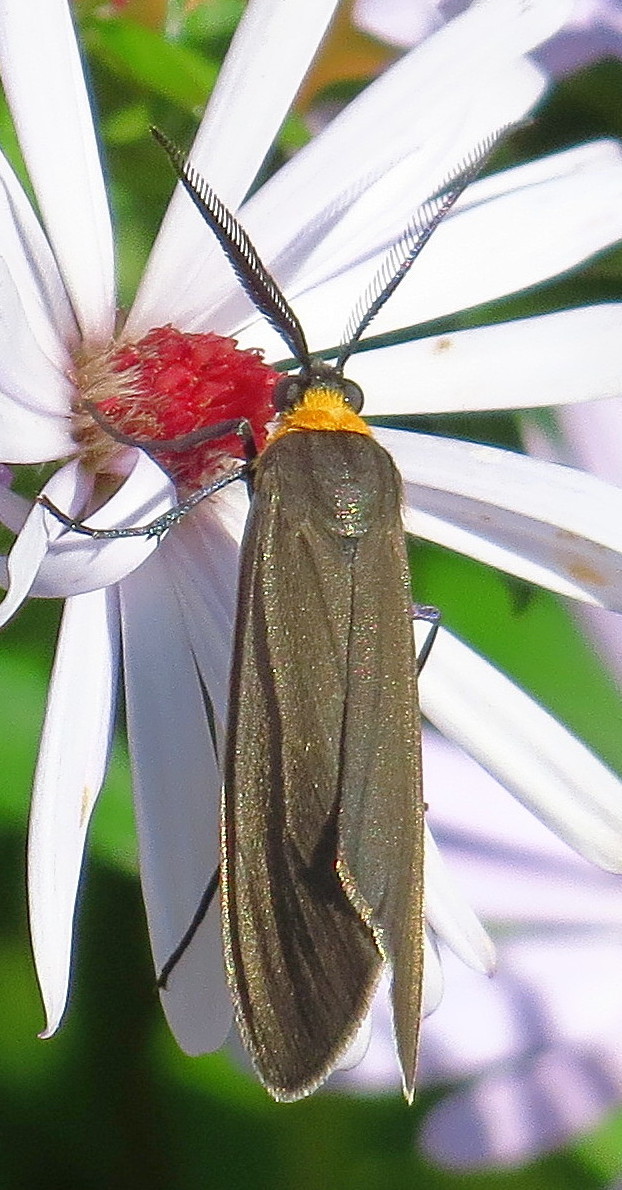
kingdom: Animalia
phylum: Arthropoda
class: Insecta
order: Lepidoptera
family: Erebidae
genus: Cisseps
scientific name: Cisseps fulvicollis
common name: Yellow-collared scape moth
